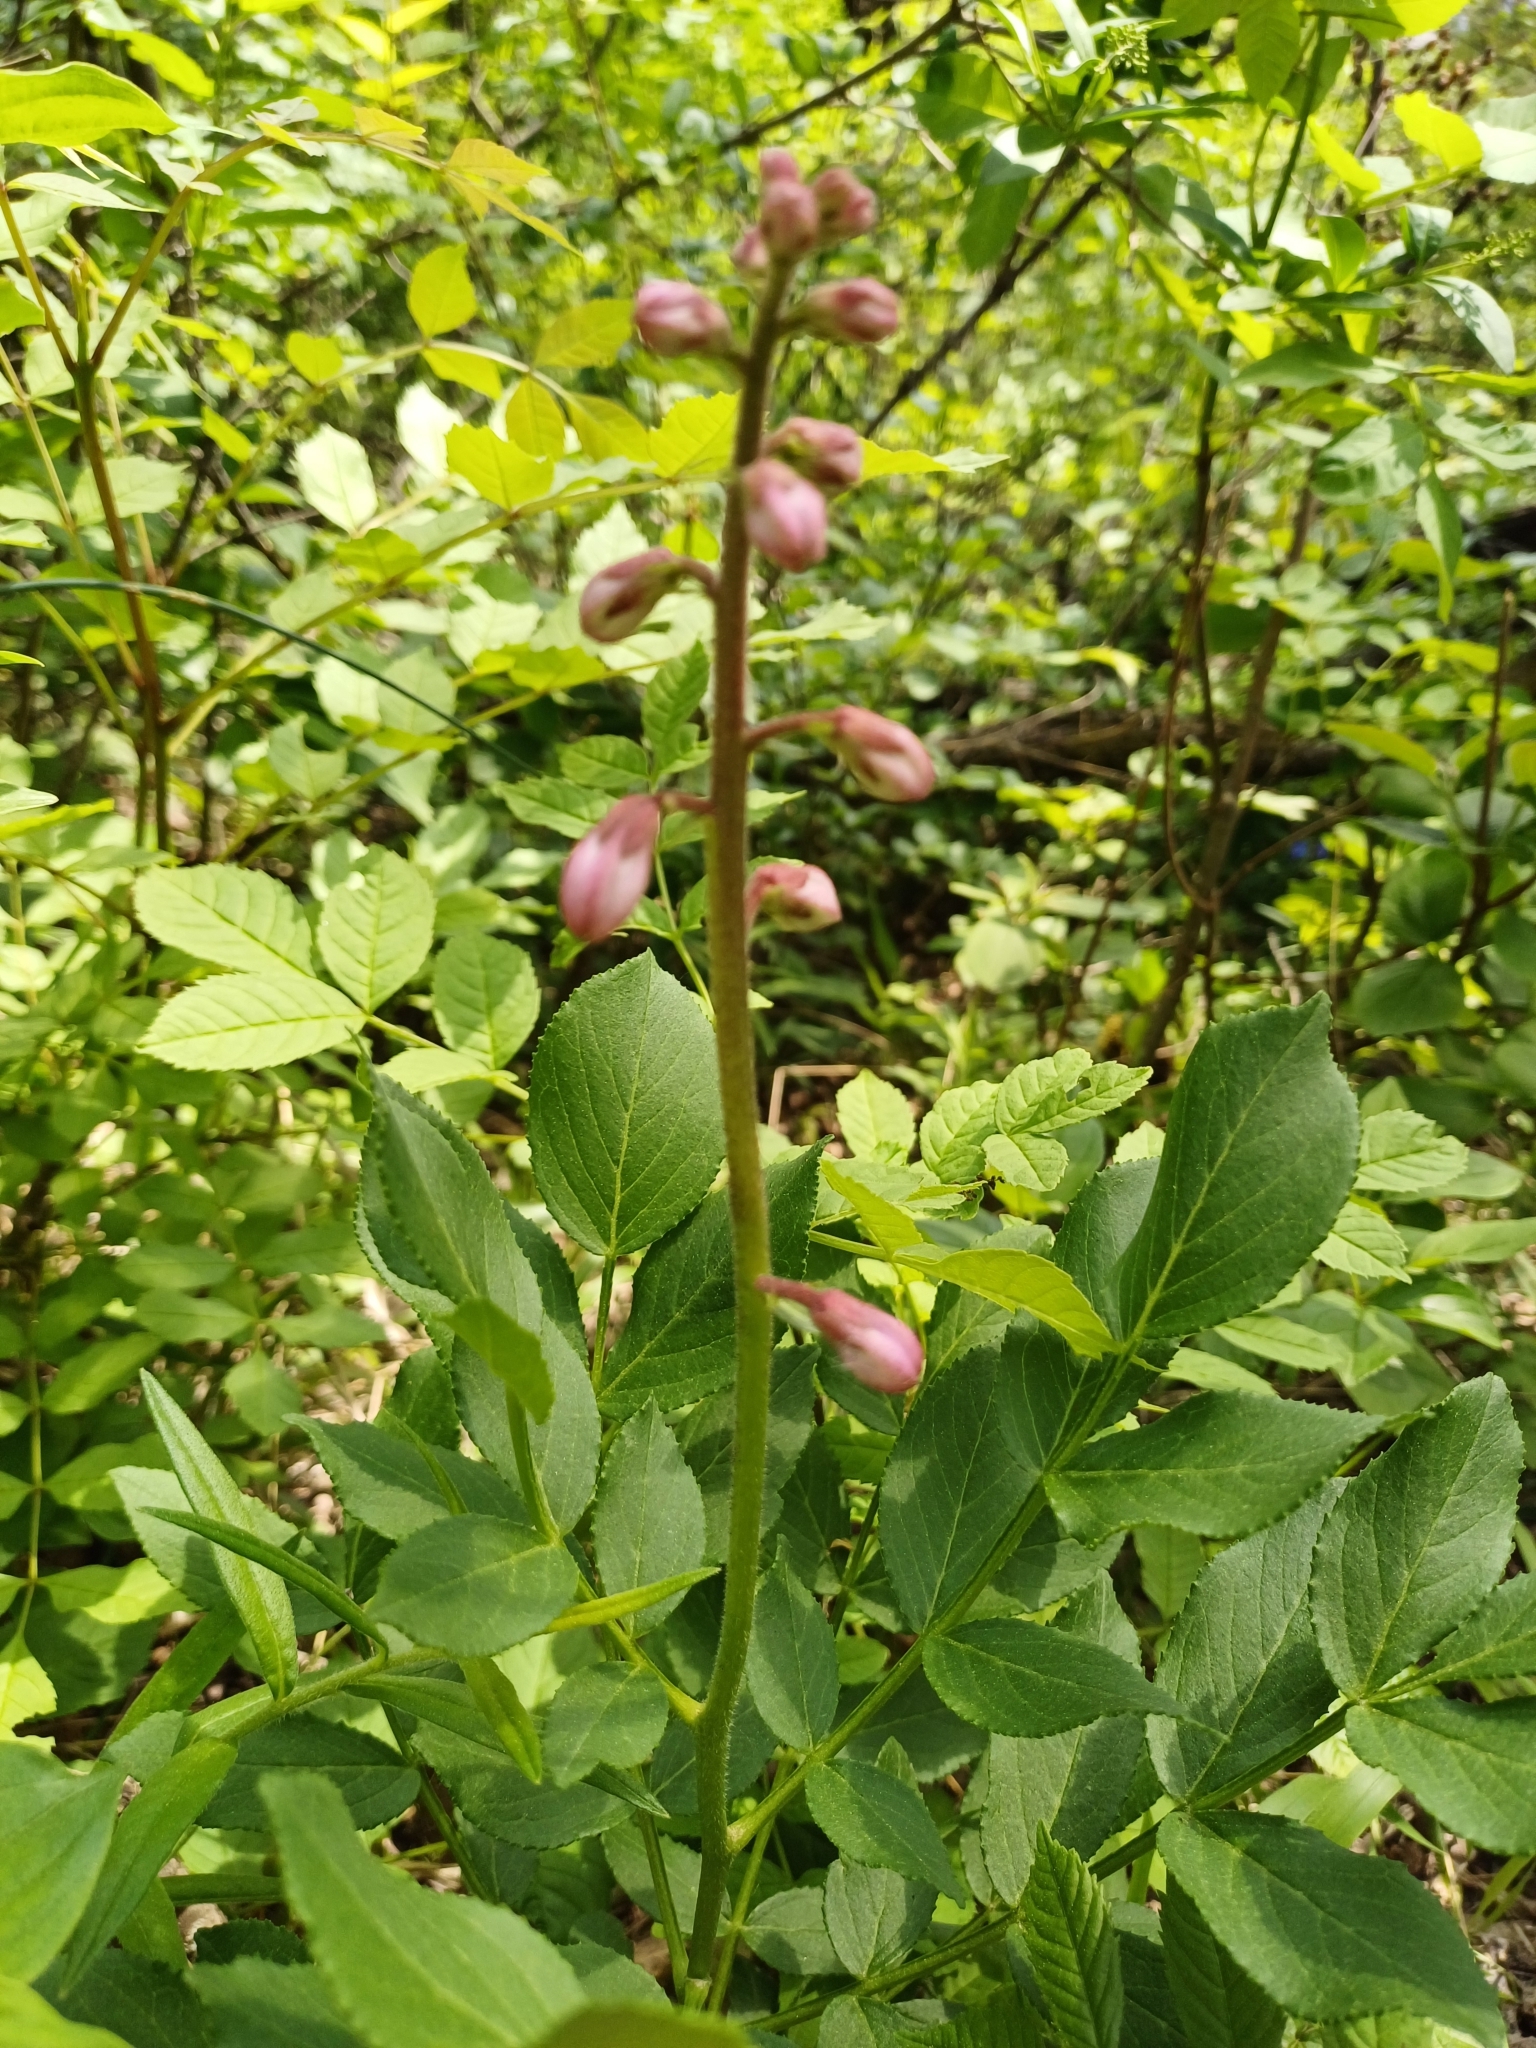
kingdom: Plantae
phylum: Tracheophyta
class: Magnoliopsida
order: Sapindales
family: Rutaceae
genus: Dictamnus
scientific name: Dictamnus albus
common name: Gasplant
